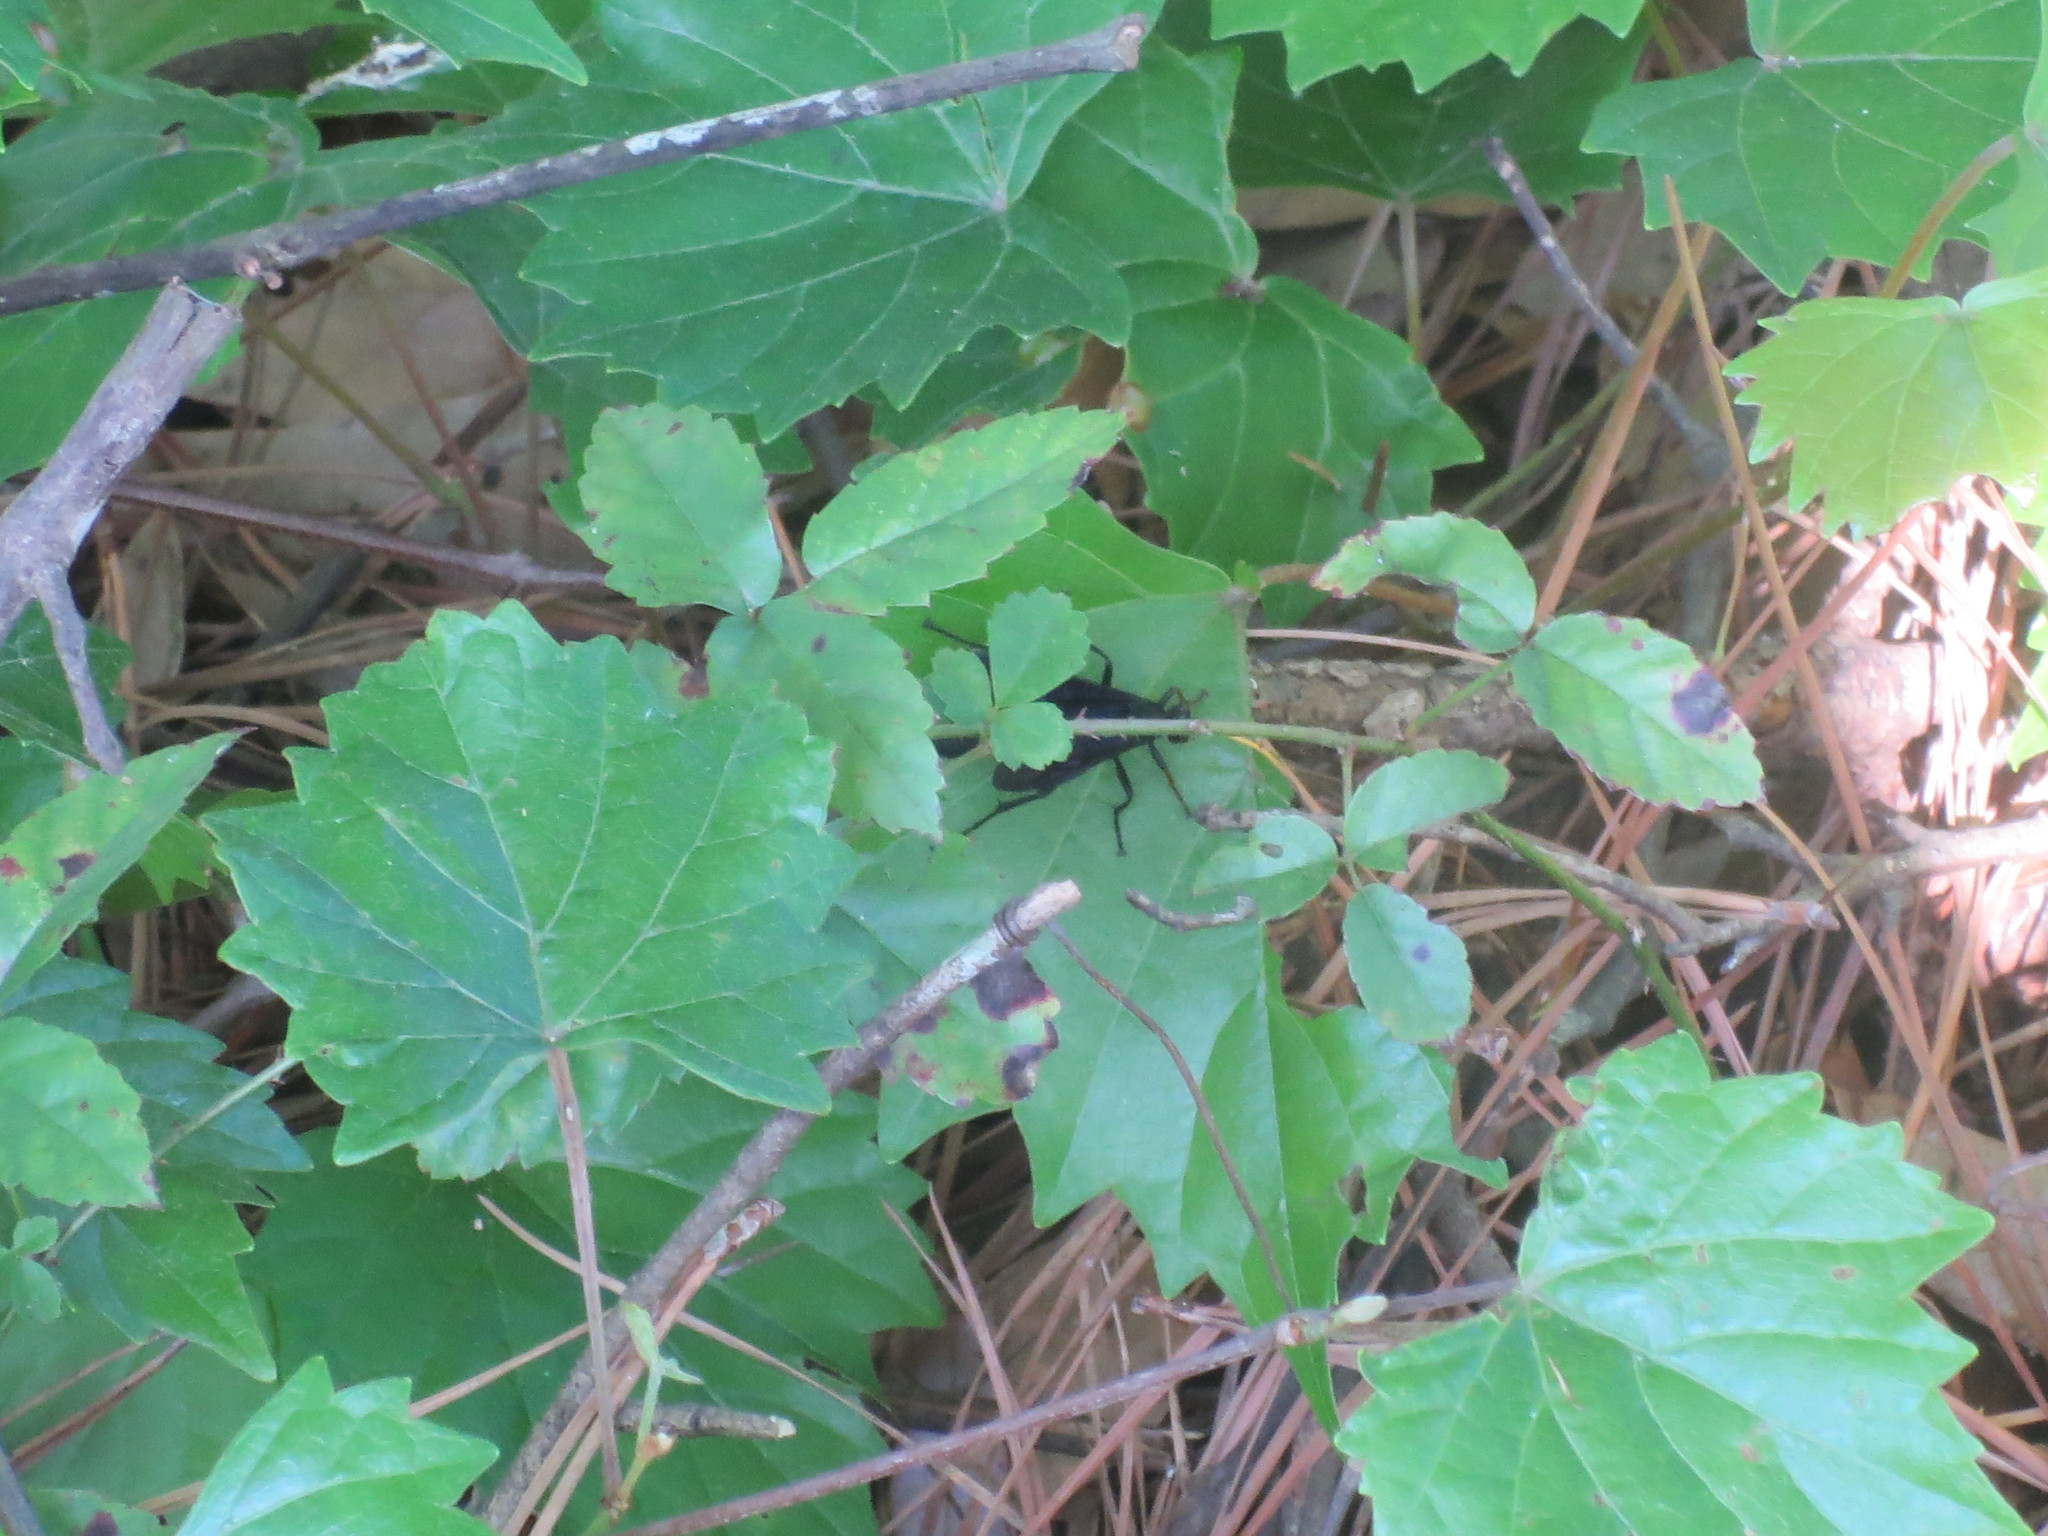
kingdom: Plantae
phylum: Tracheophyta
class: Magnoliopsida
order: Vitales
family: Vitaceae
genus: Vitis
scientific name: Vitis rotundifolia
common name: Muscadine grape
